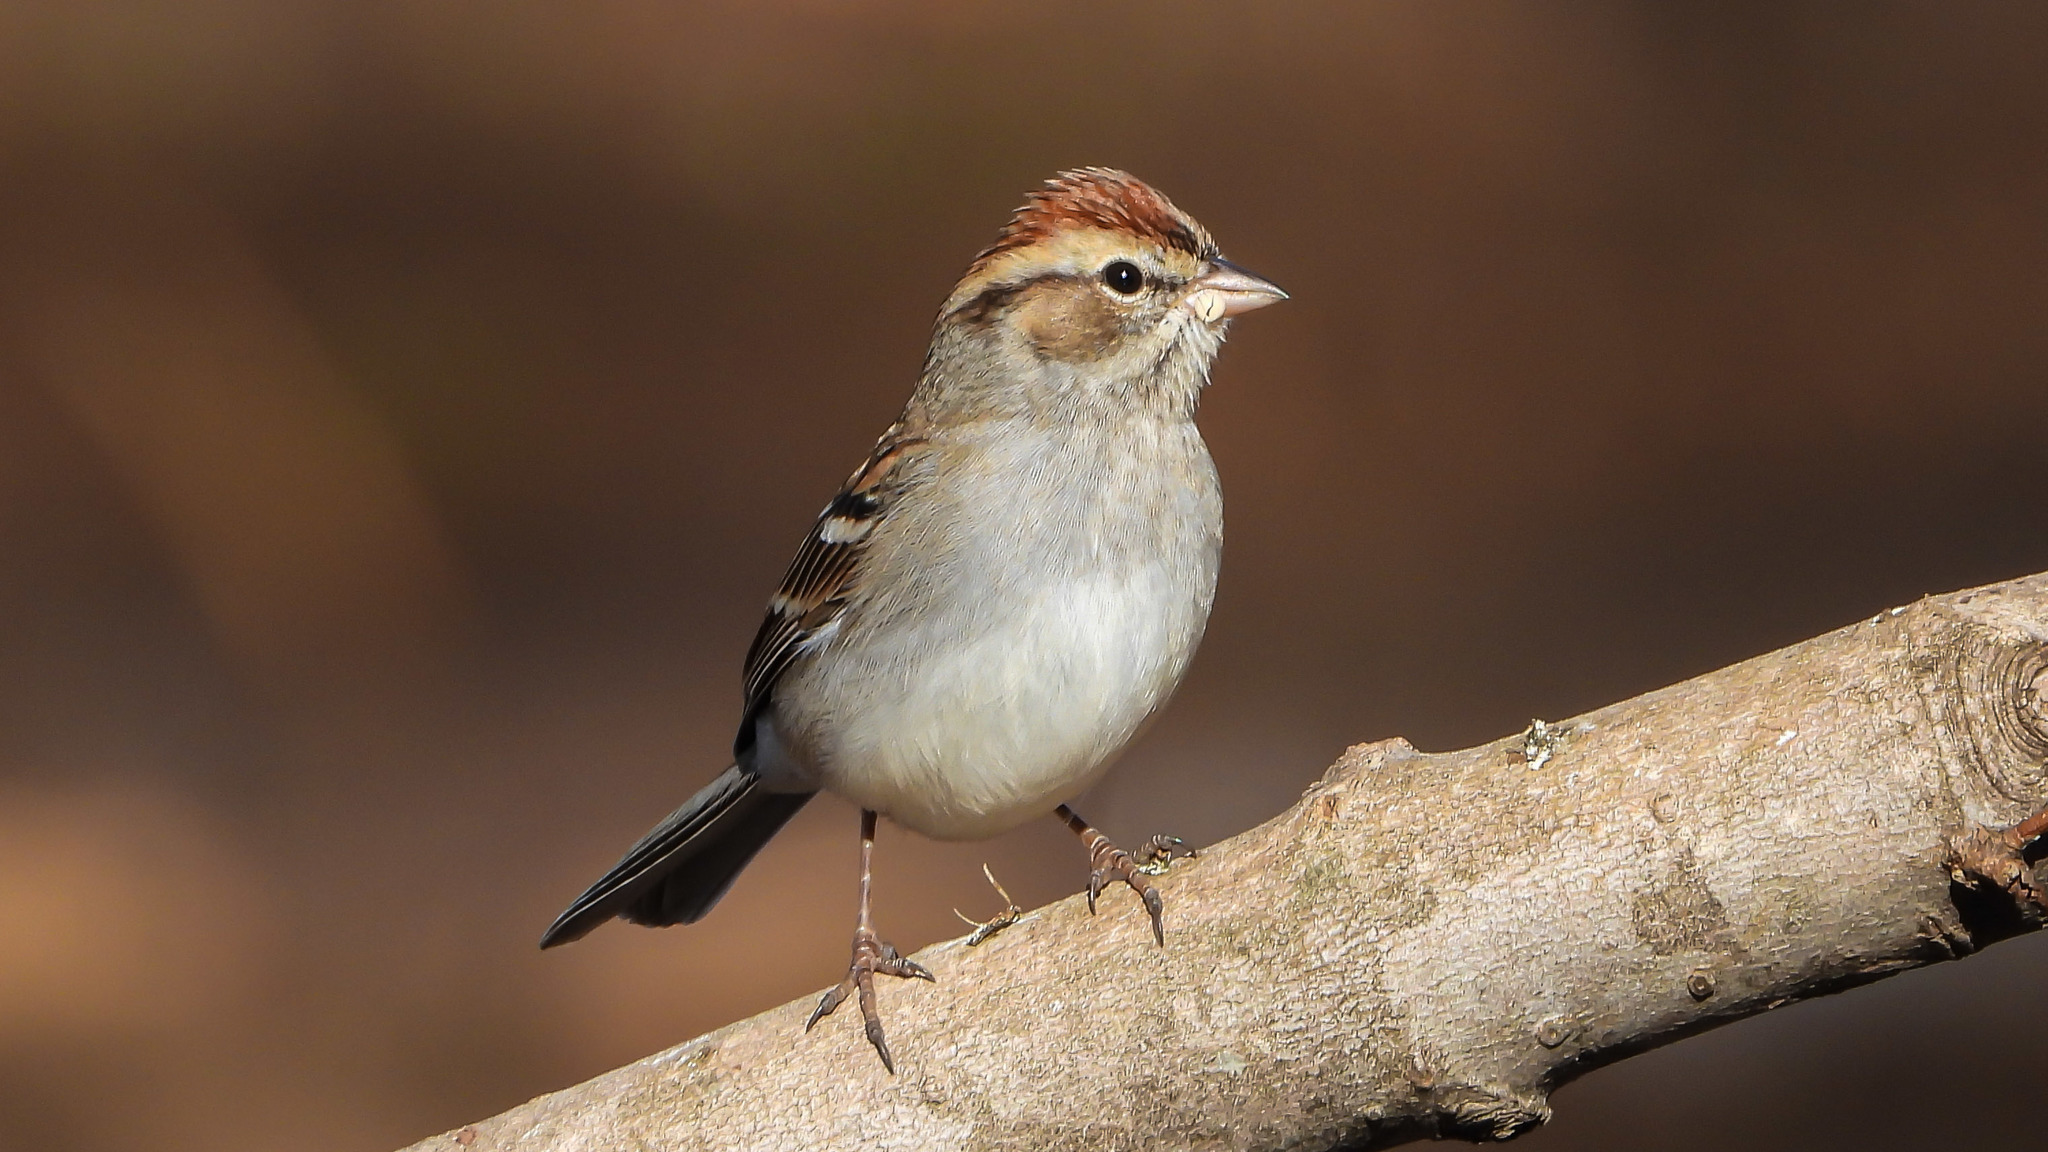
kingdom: Animalia
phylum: Chordata
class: Aves
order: Passeriformes
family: Passerellidae
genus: Spizella
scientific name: Spizella passerina
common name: Chipping sparrow
